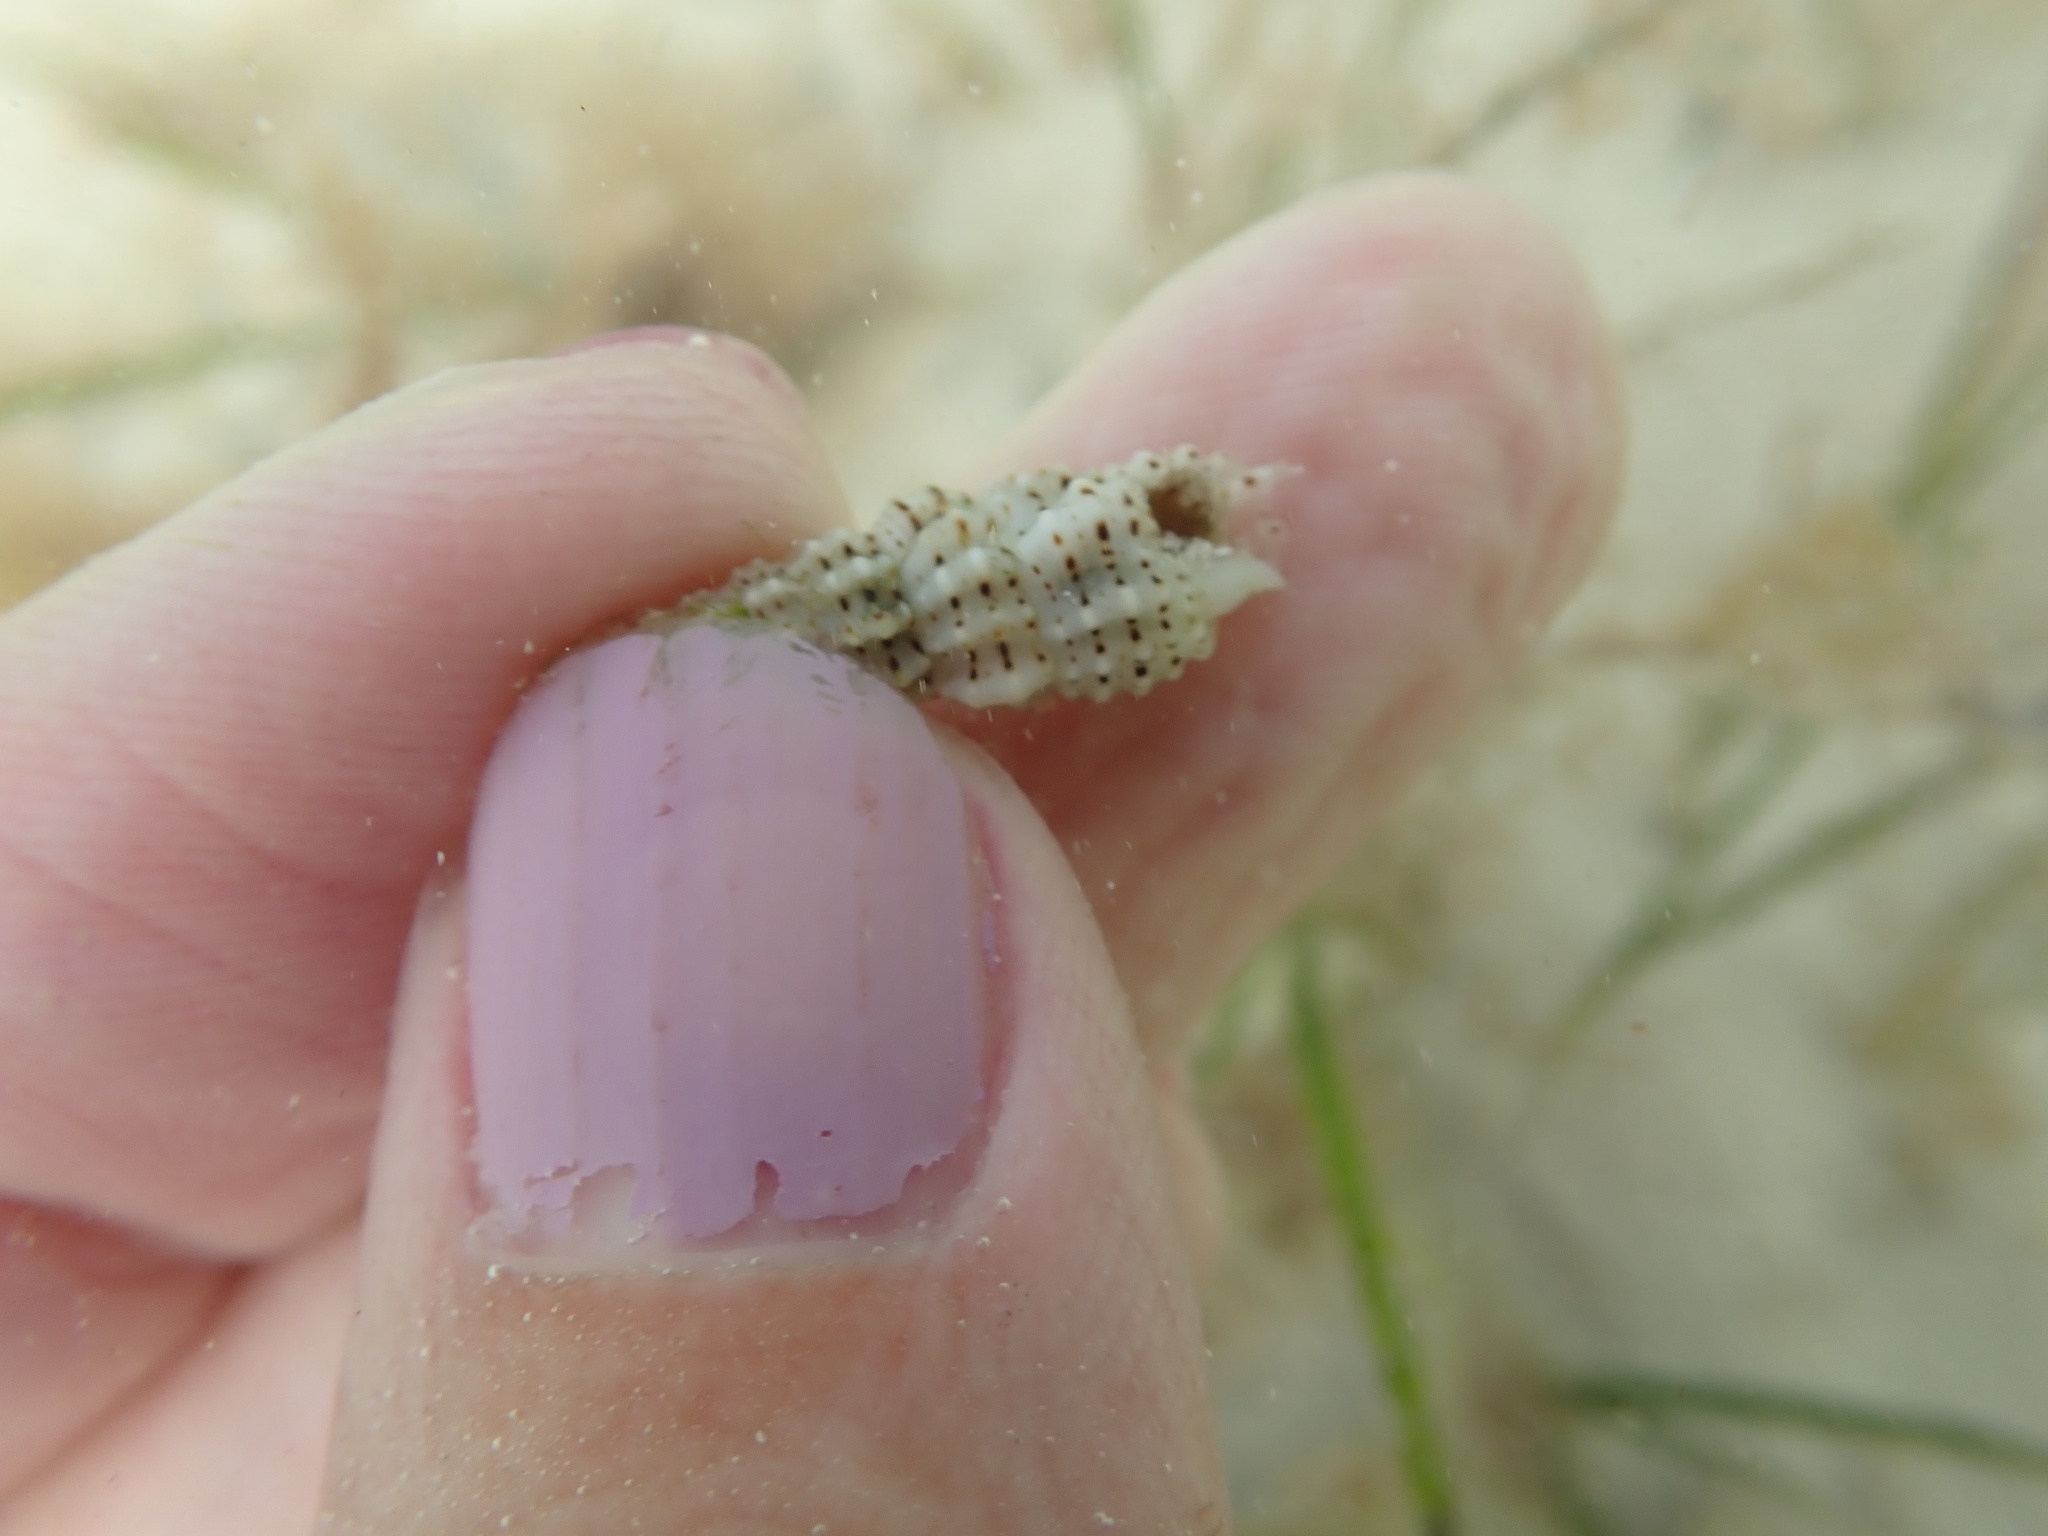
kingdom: Animalia
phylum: Mollusca
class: Gastropoda
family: Cerithiidae
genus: Cerithium
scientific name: Cerithium muscarum
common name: Fly-specked cerith
